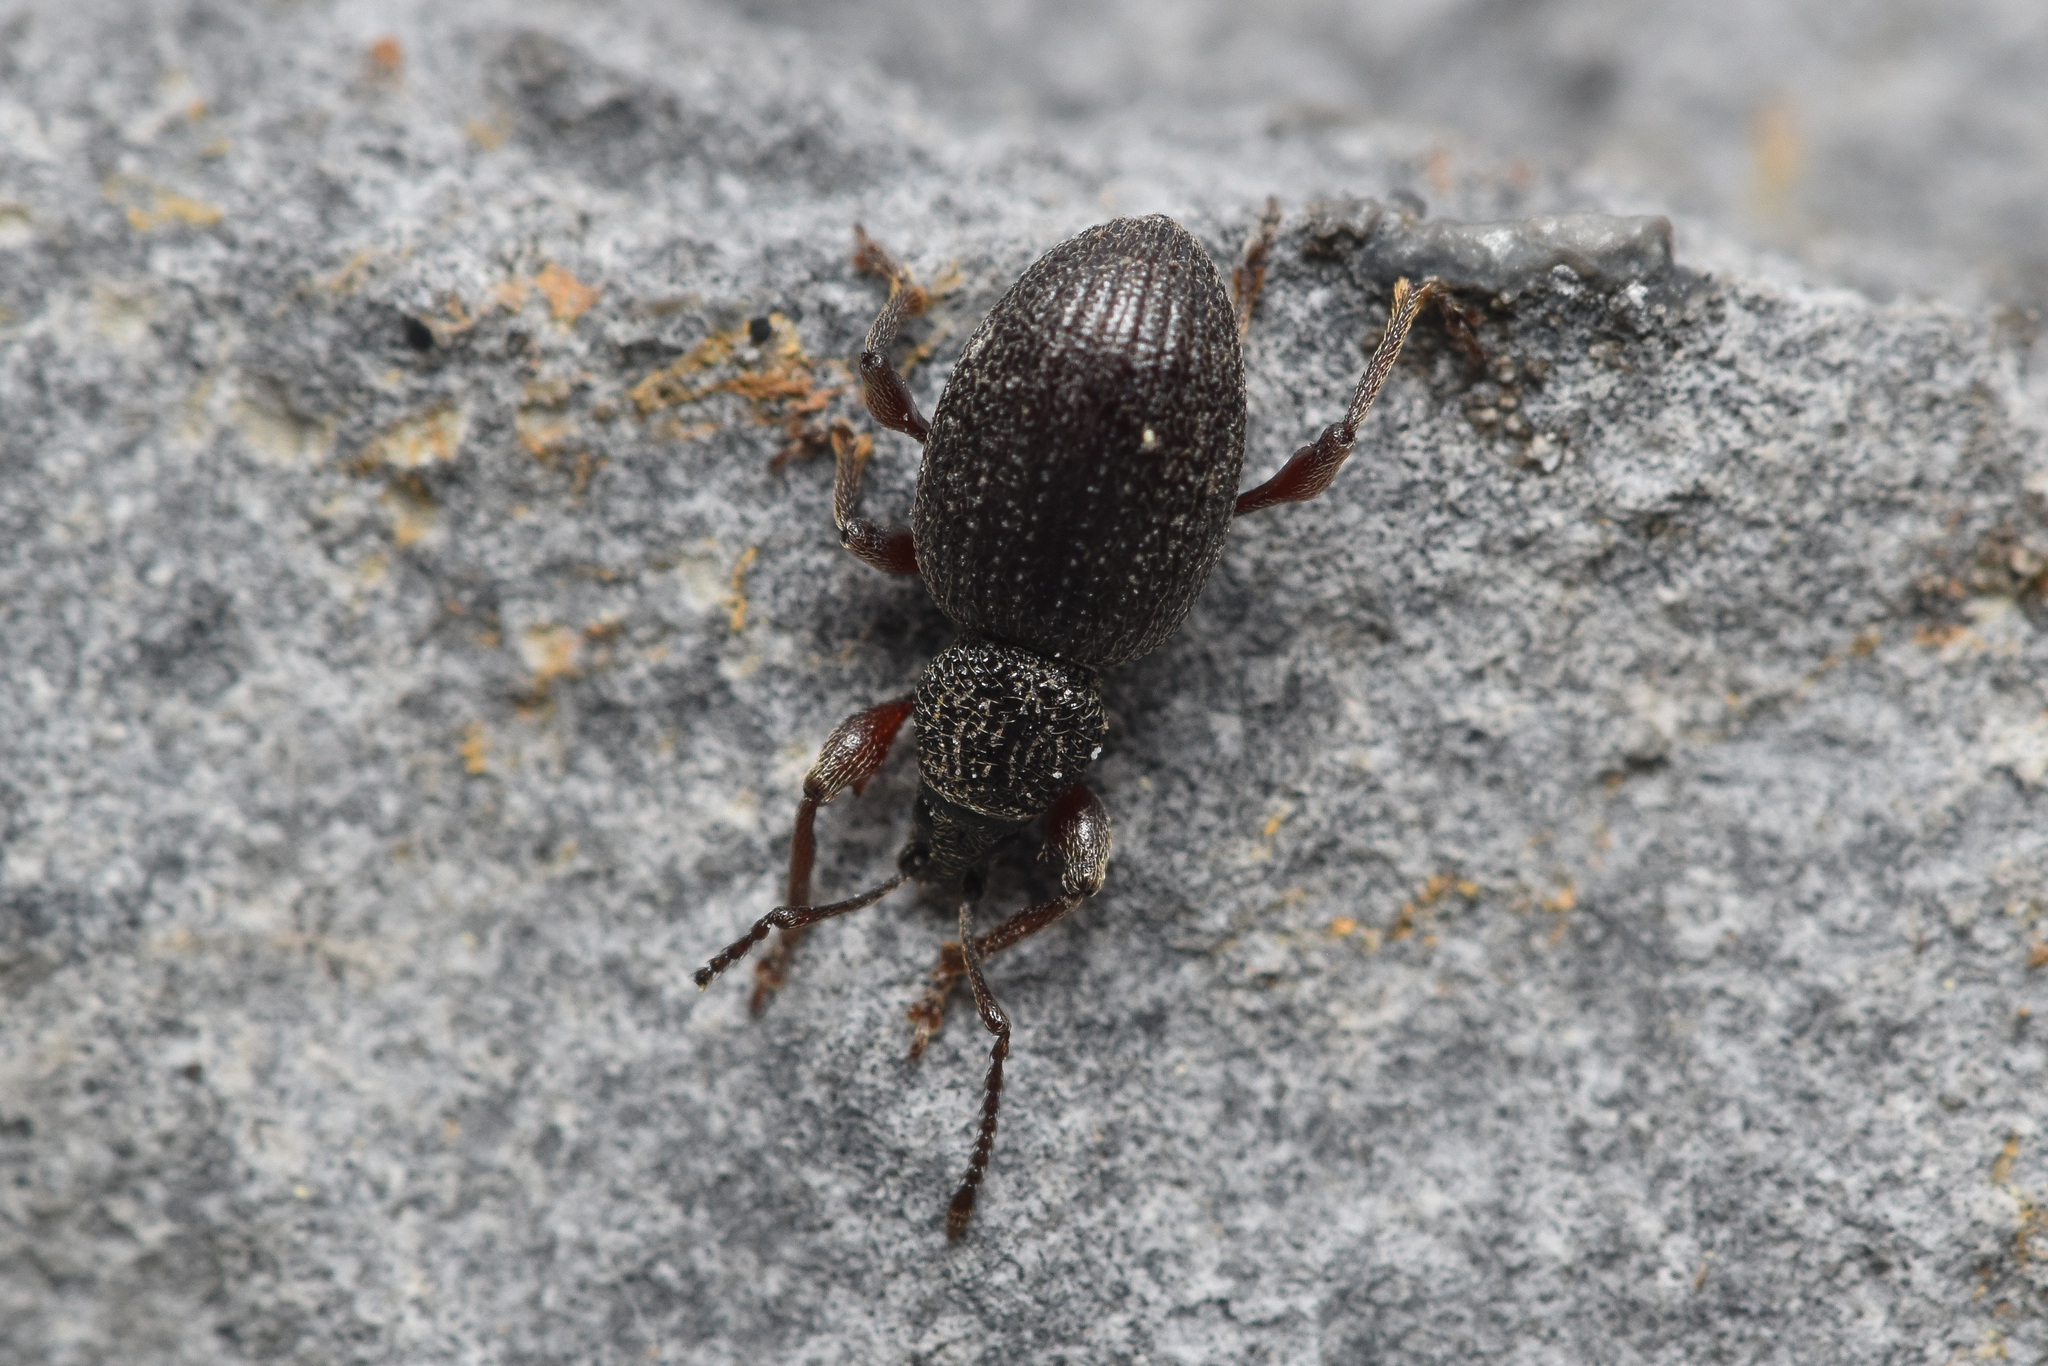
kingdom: Animalia
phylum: Arthropoda
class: Insecta
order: Coleoptera
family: Curculionidae
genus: Otiorhynchus
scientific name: Otiorhynchus ovatus
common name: Strawberry root weevil
